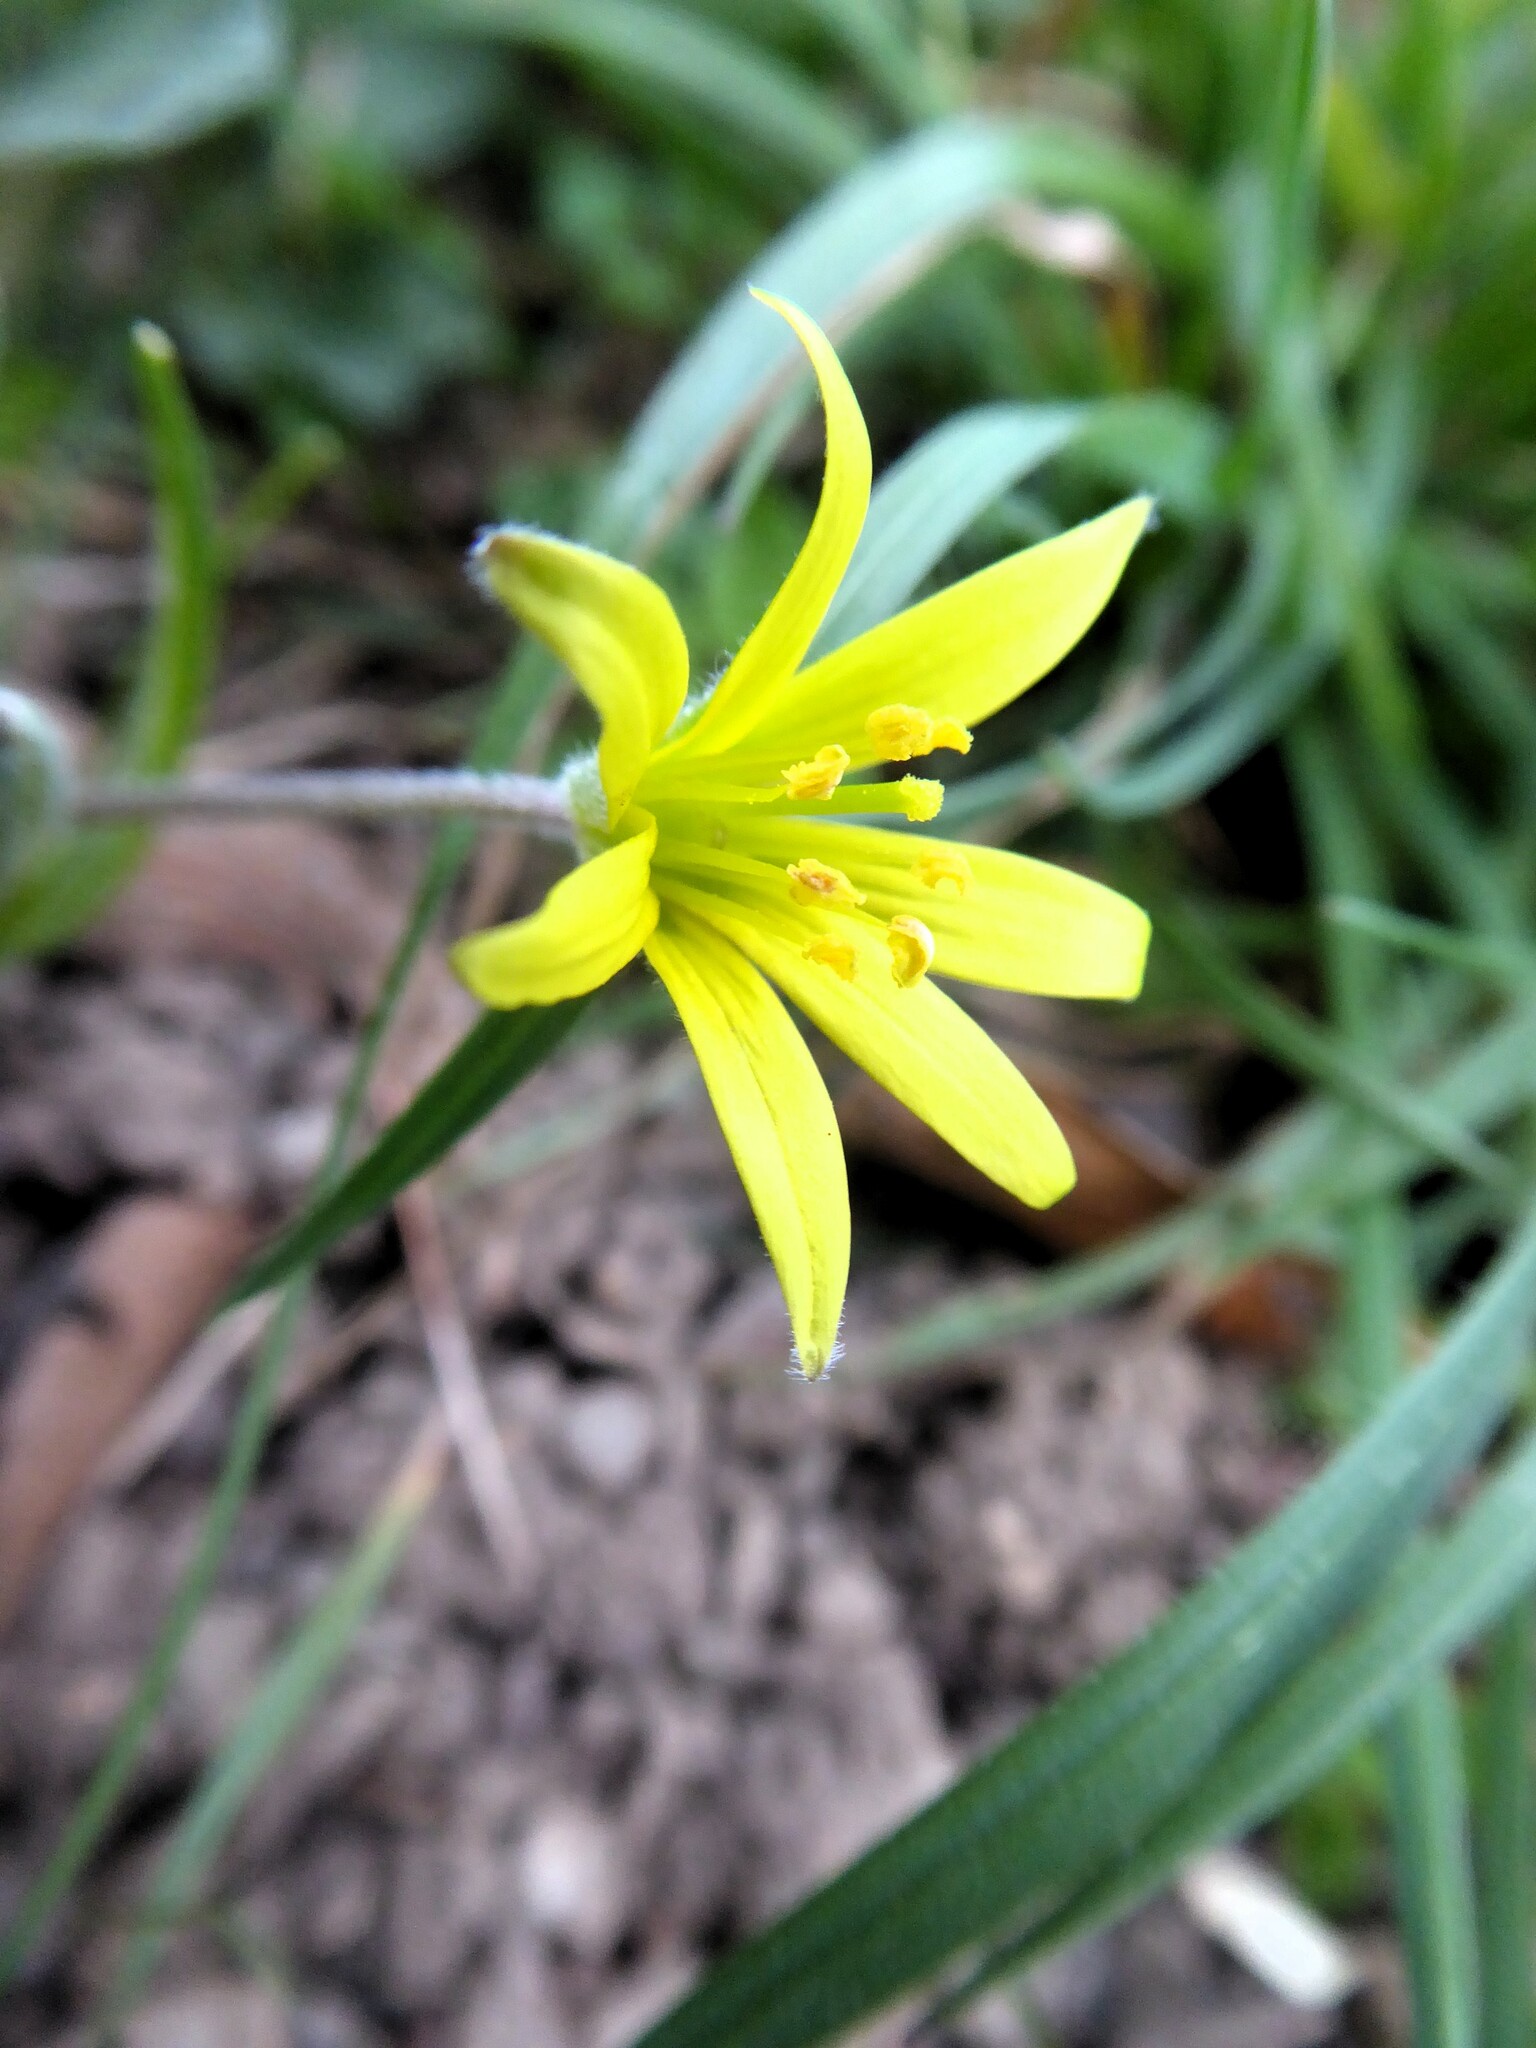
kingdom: Plantae
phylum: Tracheophyta
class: Liliopsida
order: Liliales
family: Liliaceae
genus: Gagea
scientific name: Gagea villosa
